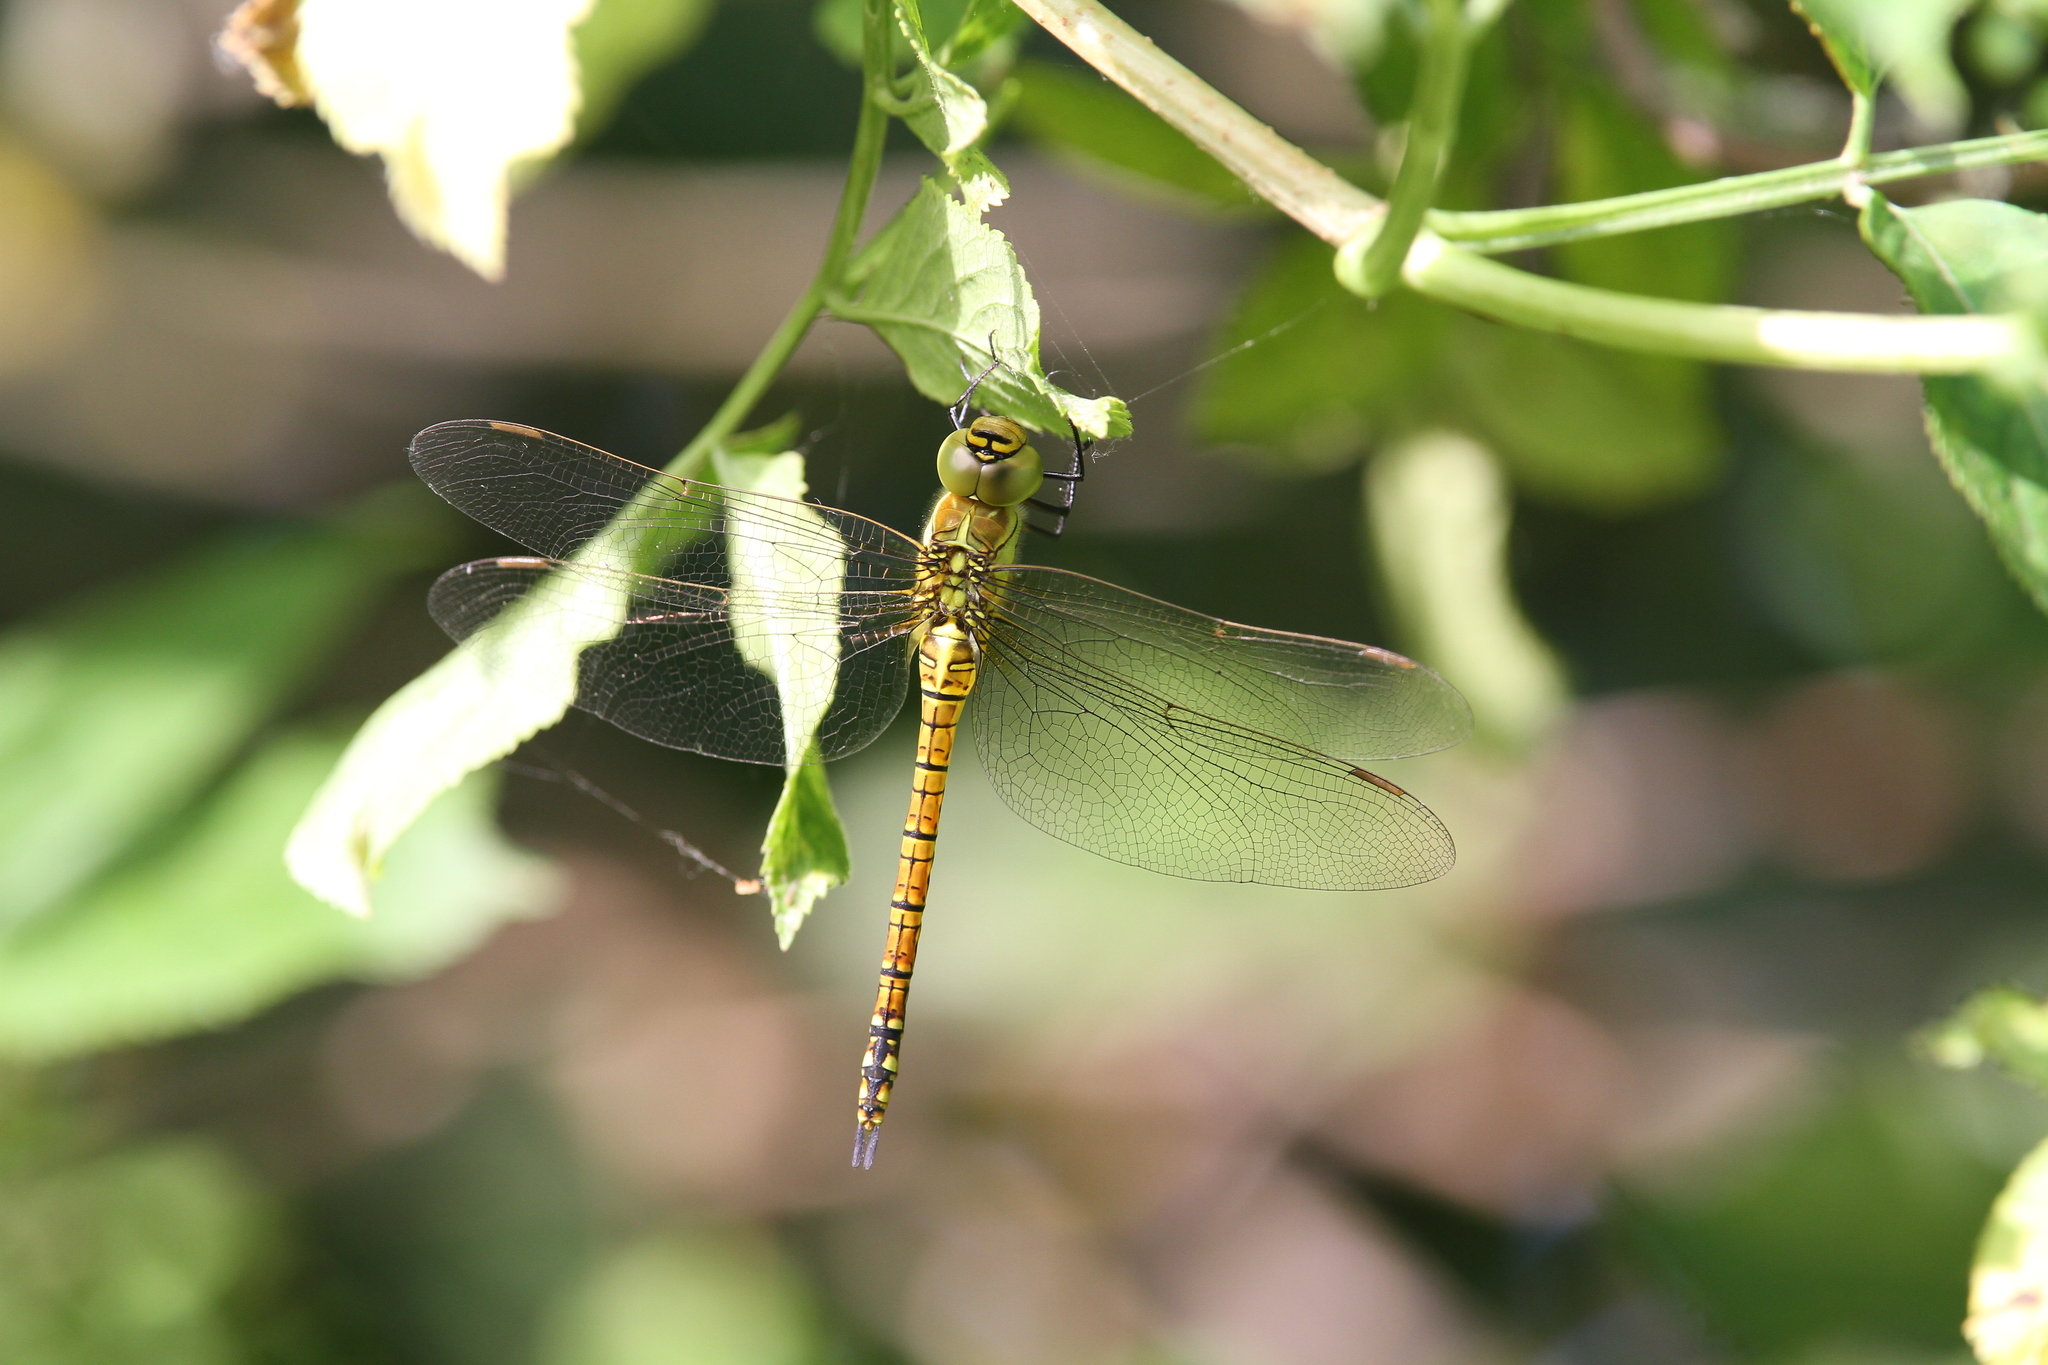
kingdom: Animalia
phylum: Arthropoda
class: Insecta
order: Odonata
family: Aeshnidae
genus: Aeshna
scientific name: Aeshna affinis
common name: Southern migrant hawker
